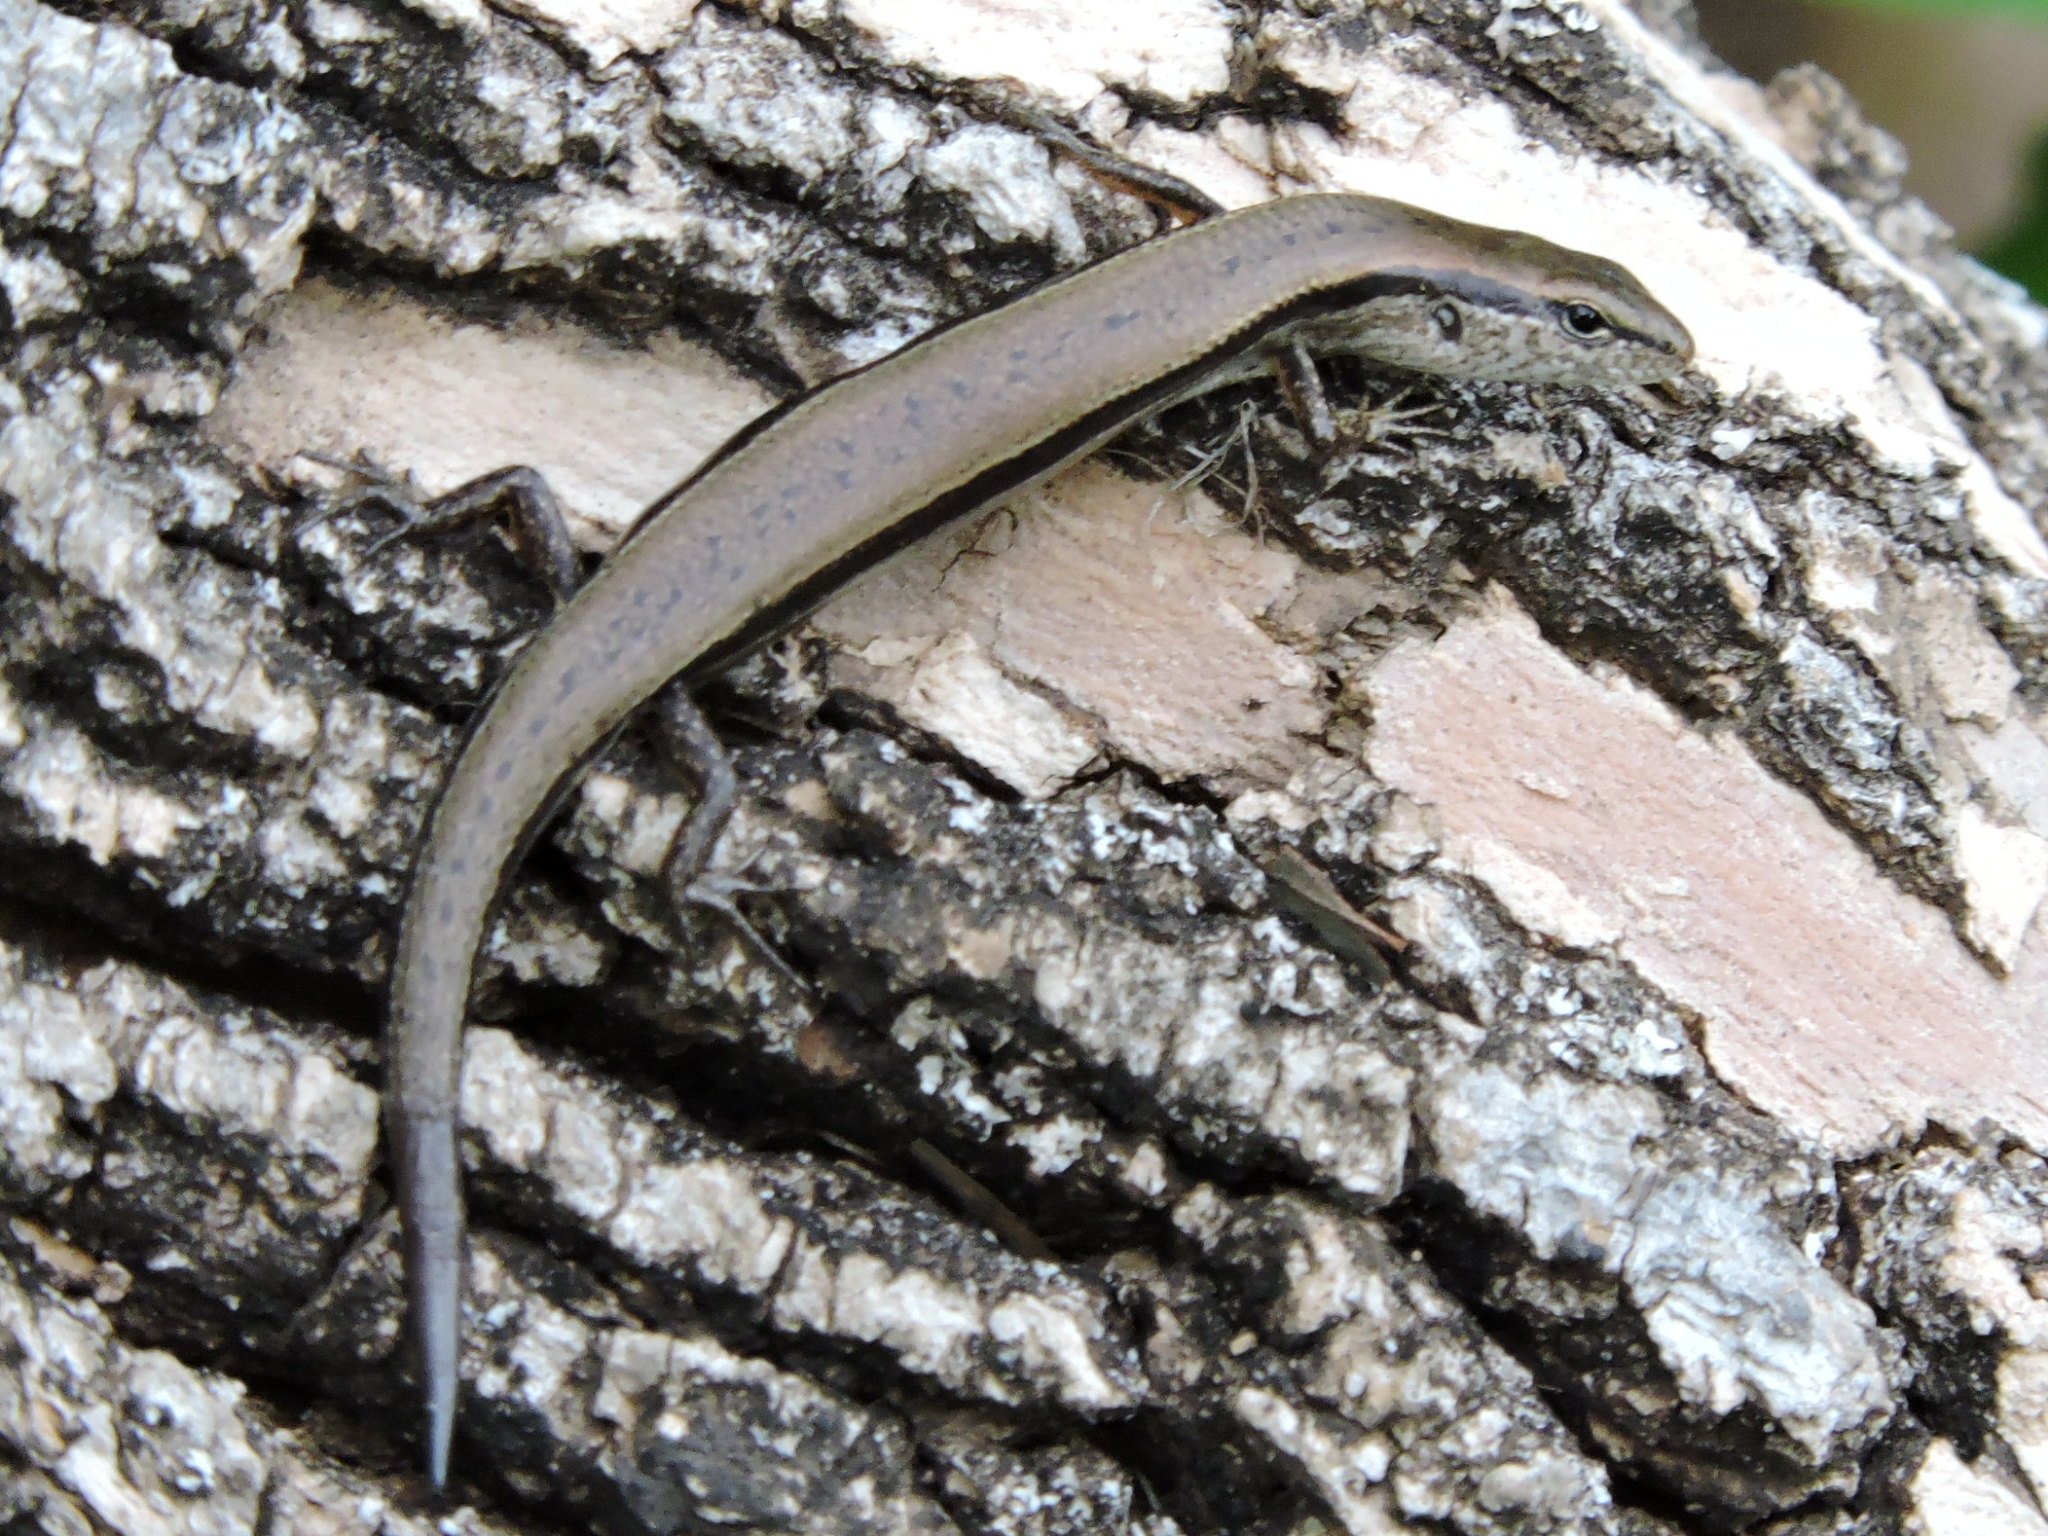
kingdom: Animalia
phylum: Chordata
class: Squamata
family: Scincidae
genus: Scincella
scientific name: Scincella lateralis
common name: Ground skink
